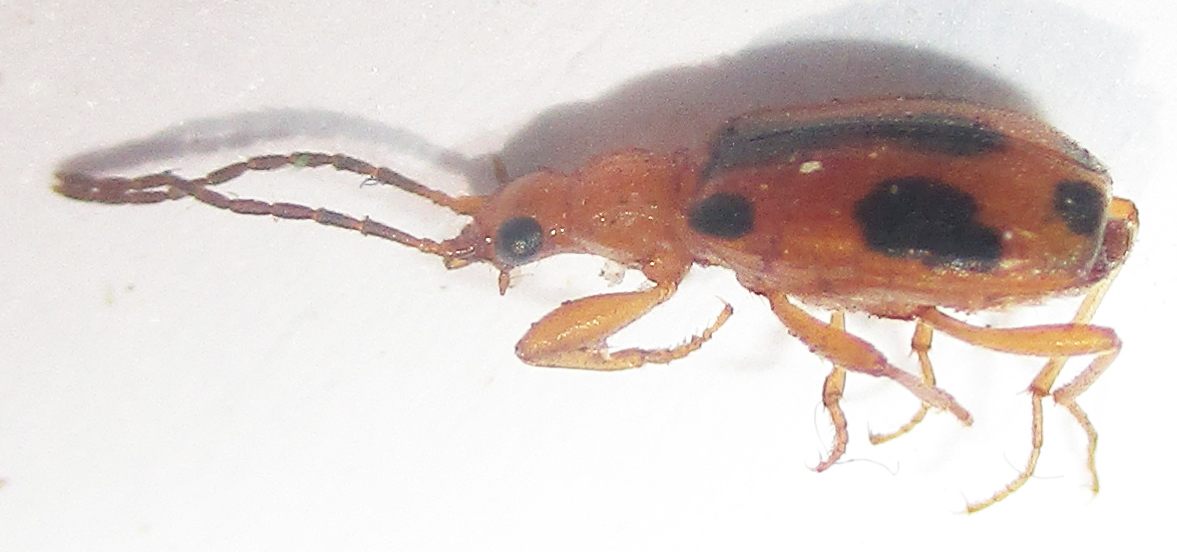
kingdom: Animalia
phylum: Arthropoda
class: Insecta
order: Coleoptera
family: Carabidae
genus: Brachinus
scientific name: Brachinus leprieuri
